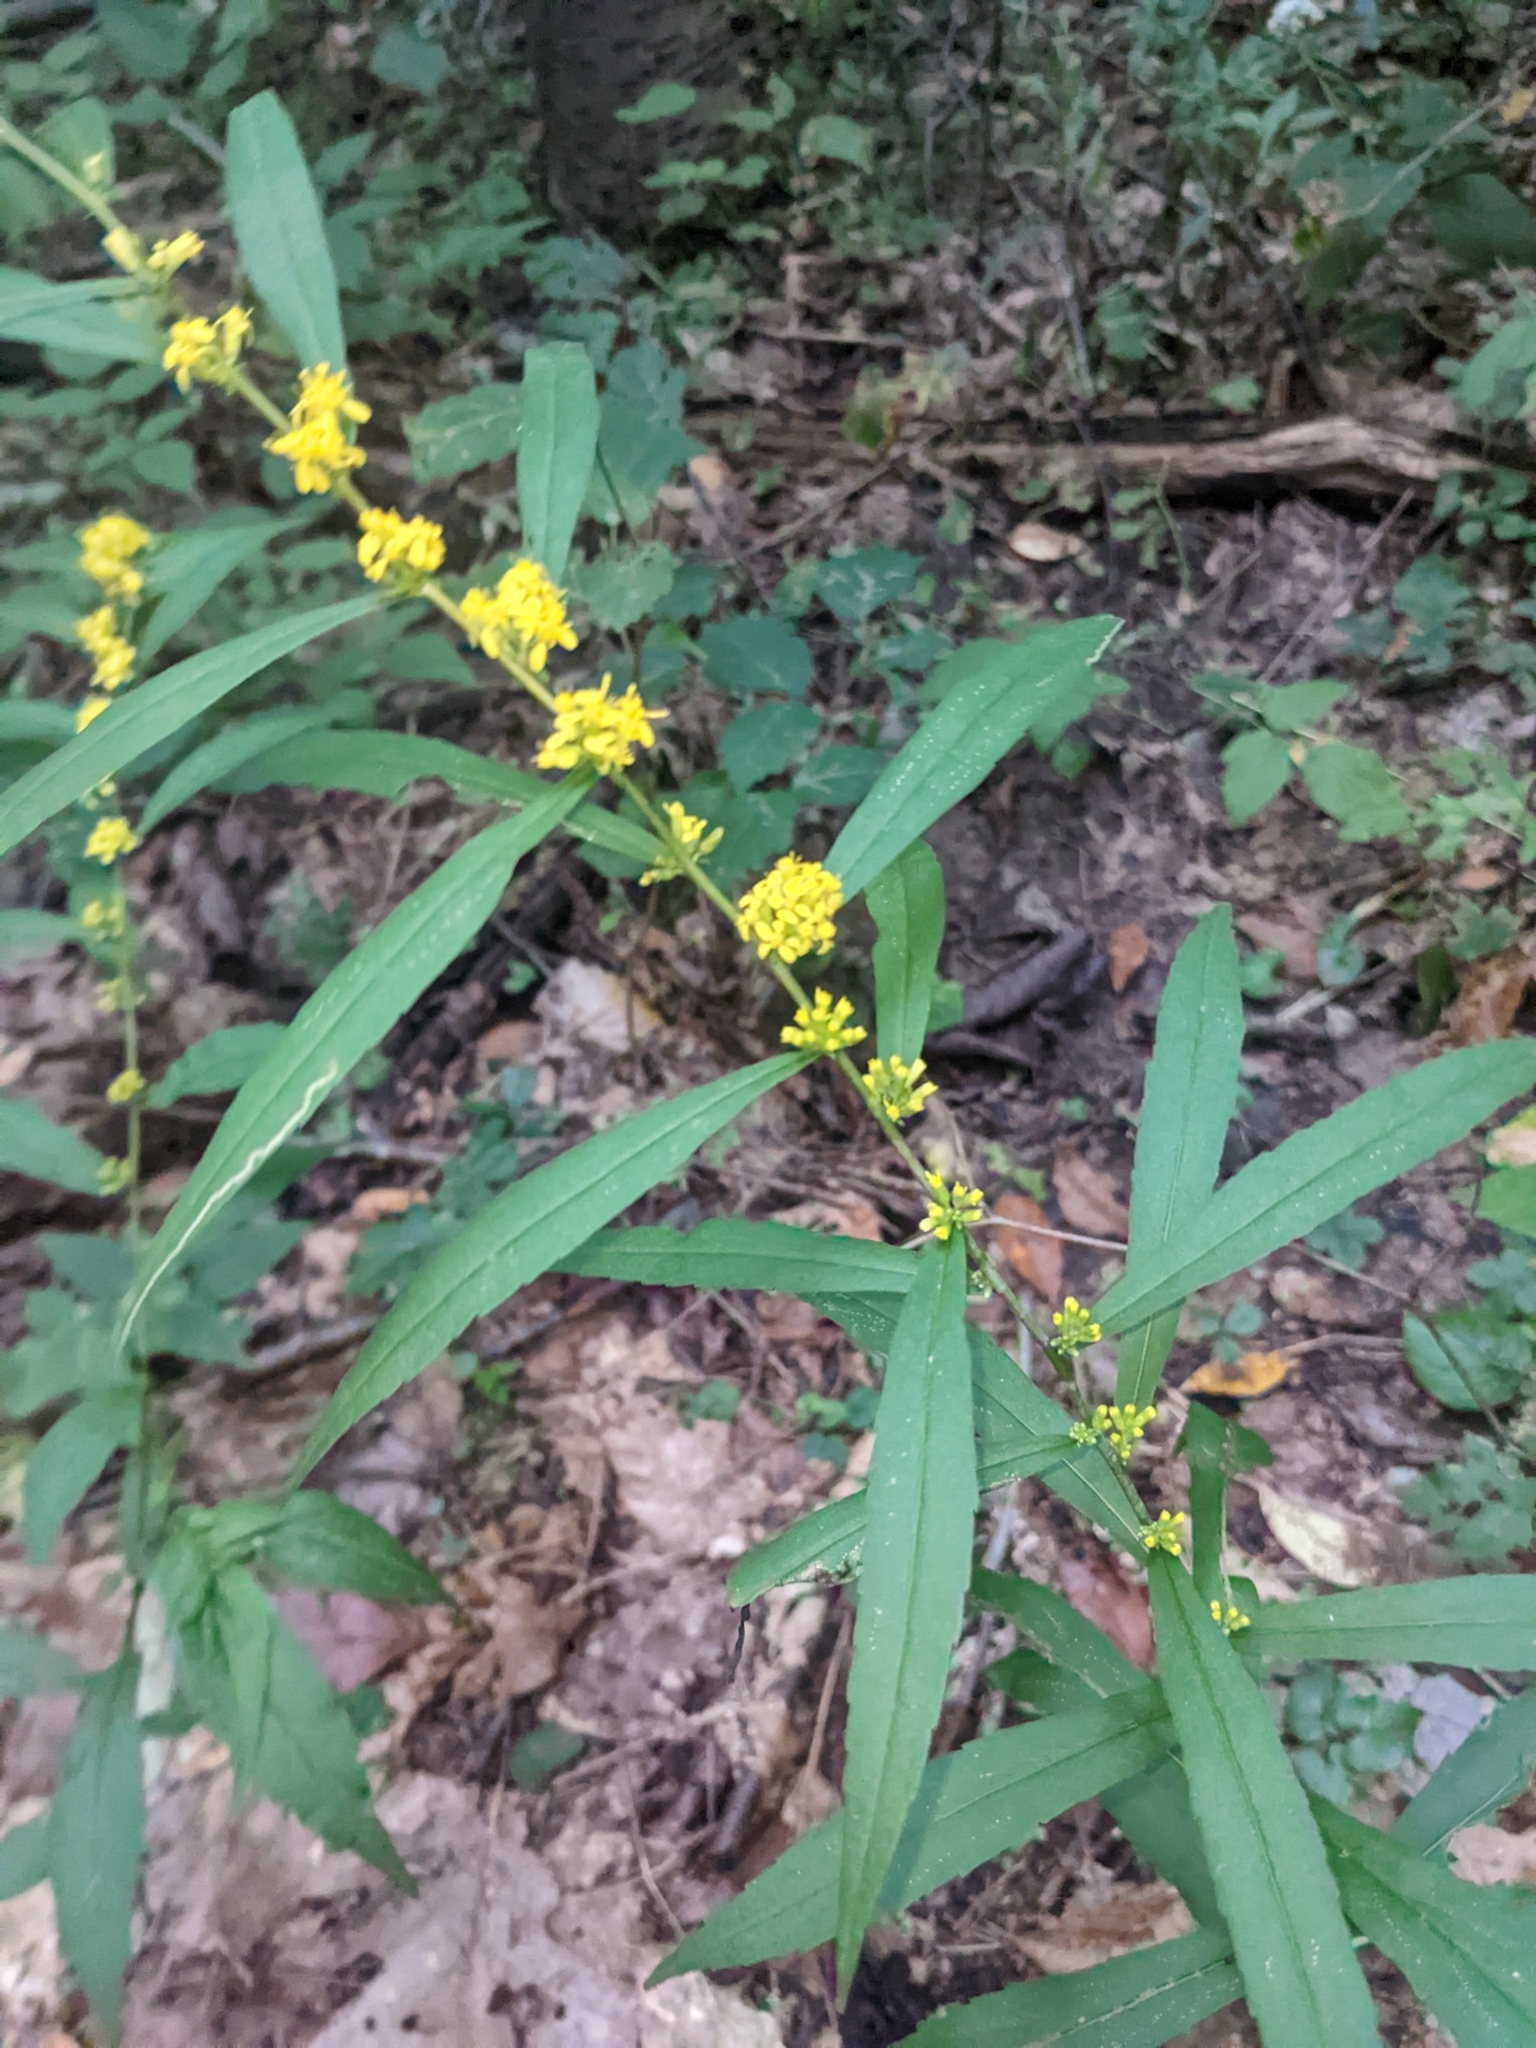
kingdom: Plantae
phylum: Tracheophyta
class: Magnoliopsida
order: Asterales
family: Asteraceae
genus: Solidago
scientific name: Solidago caesia
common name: Woodland goldenrod
